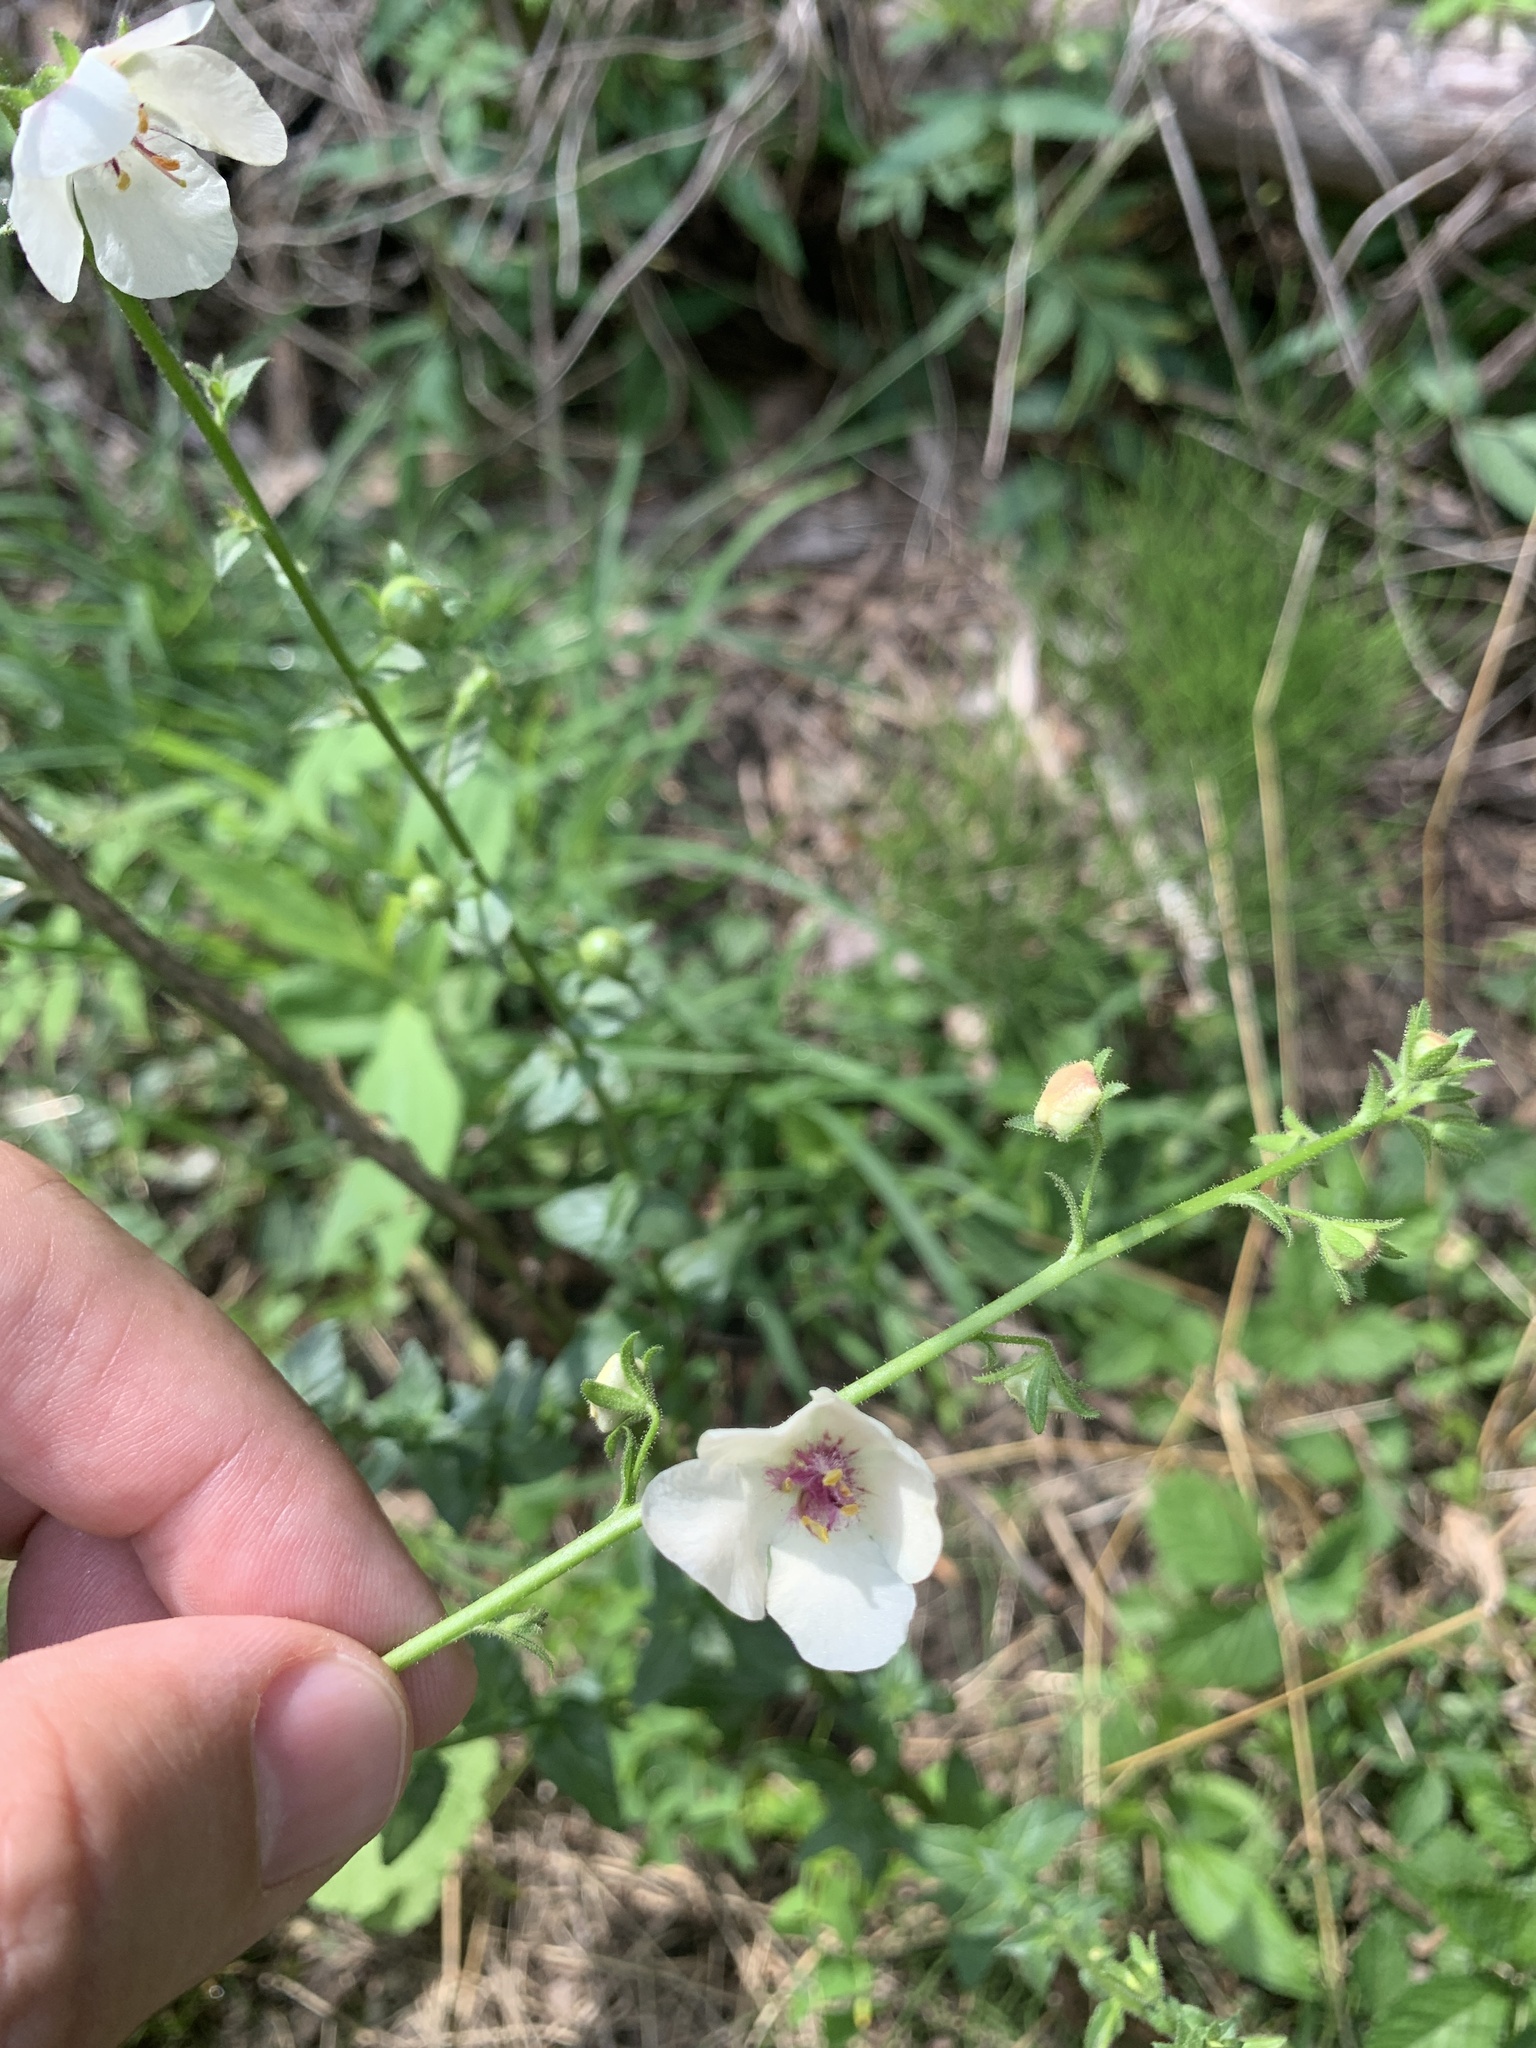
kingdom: Plantae
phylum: Tracheophyta
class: Magnoliopsida
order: Lamiales
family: Scrophulariaceae
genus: Verbascum
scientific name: Verbascum blattaria
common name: Moth mullein
